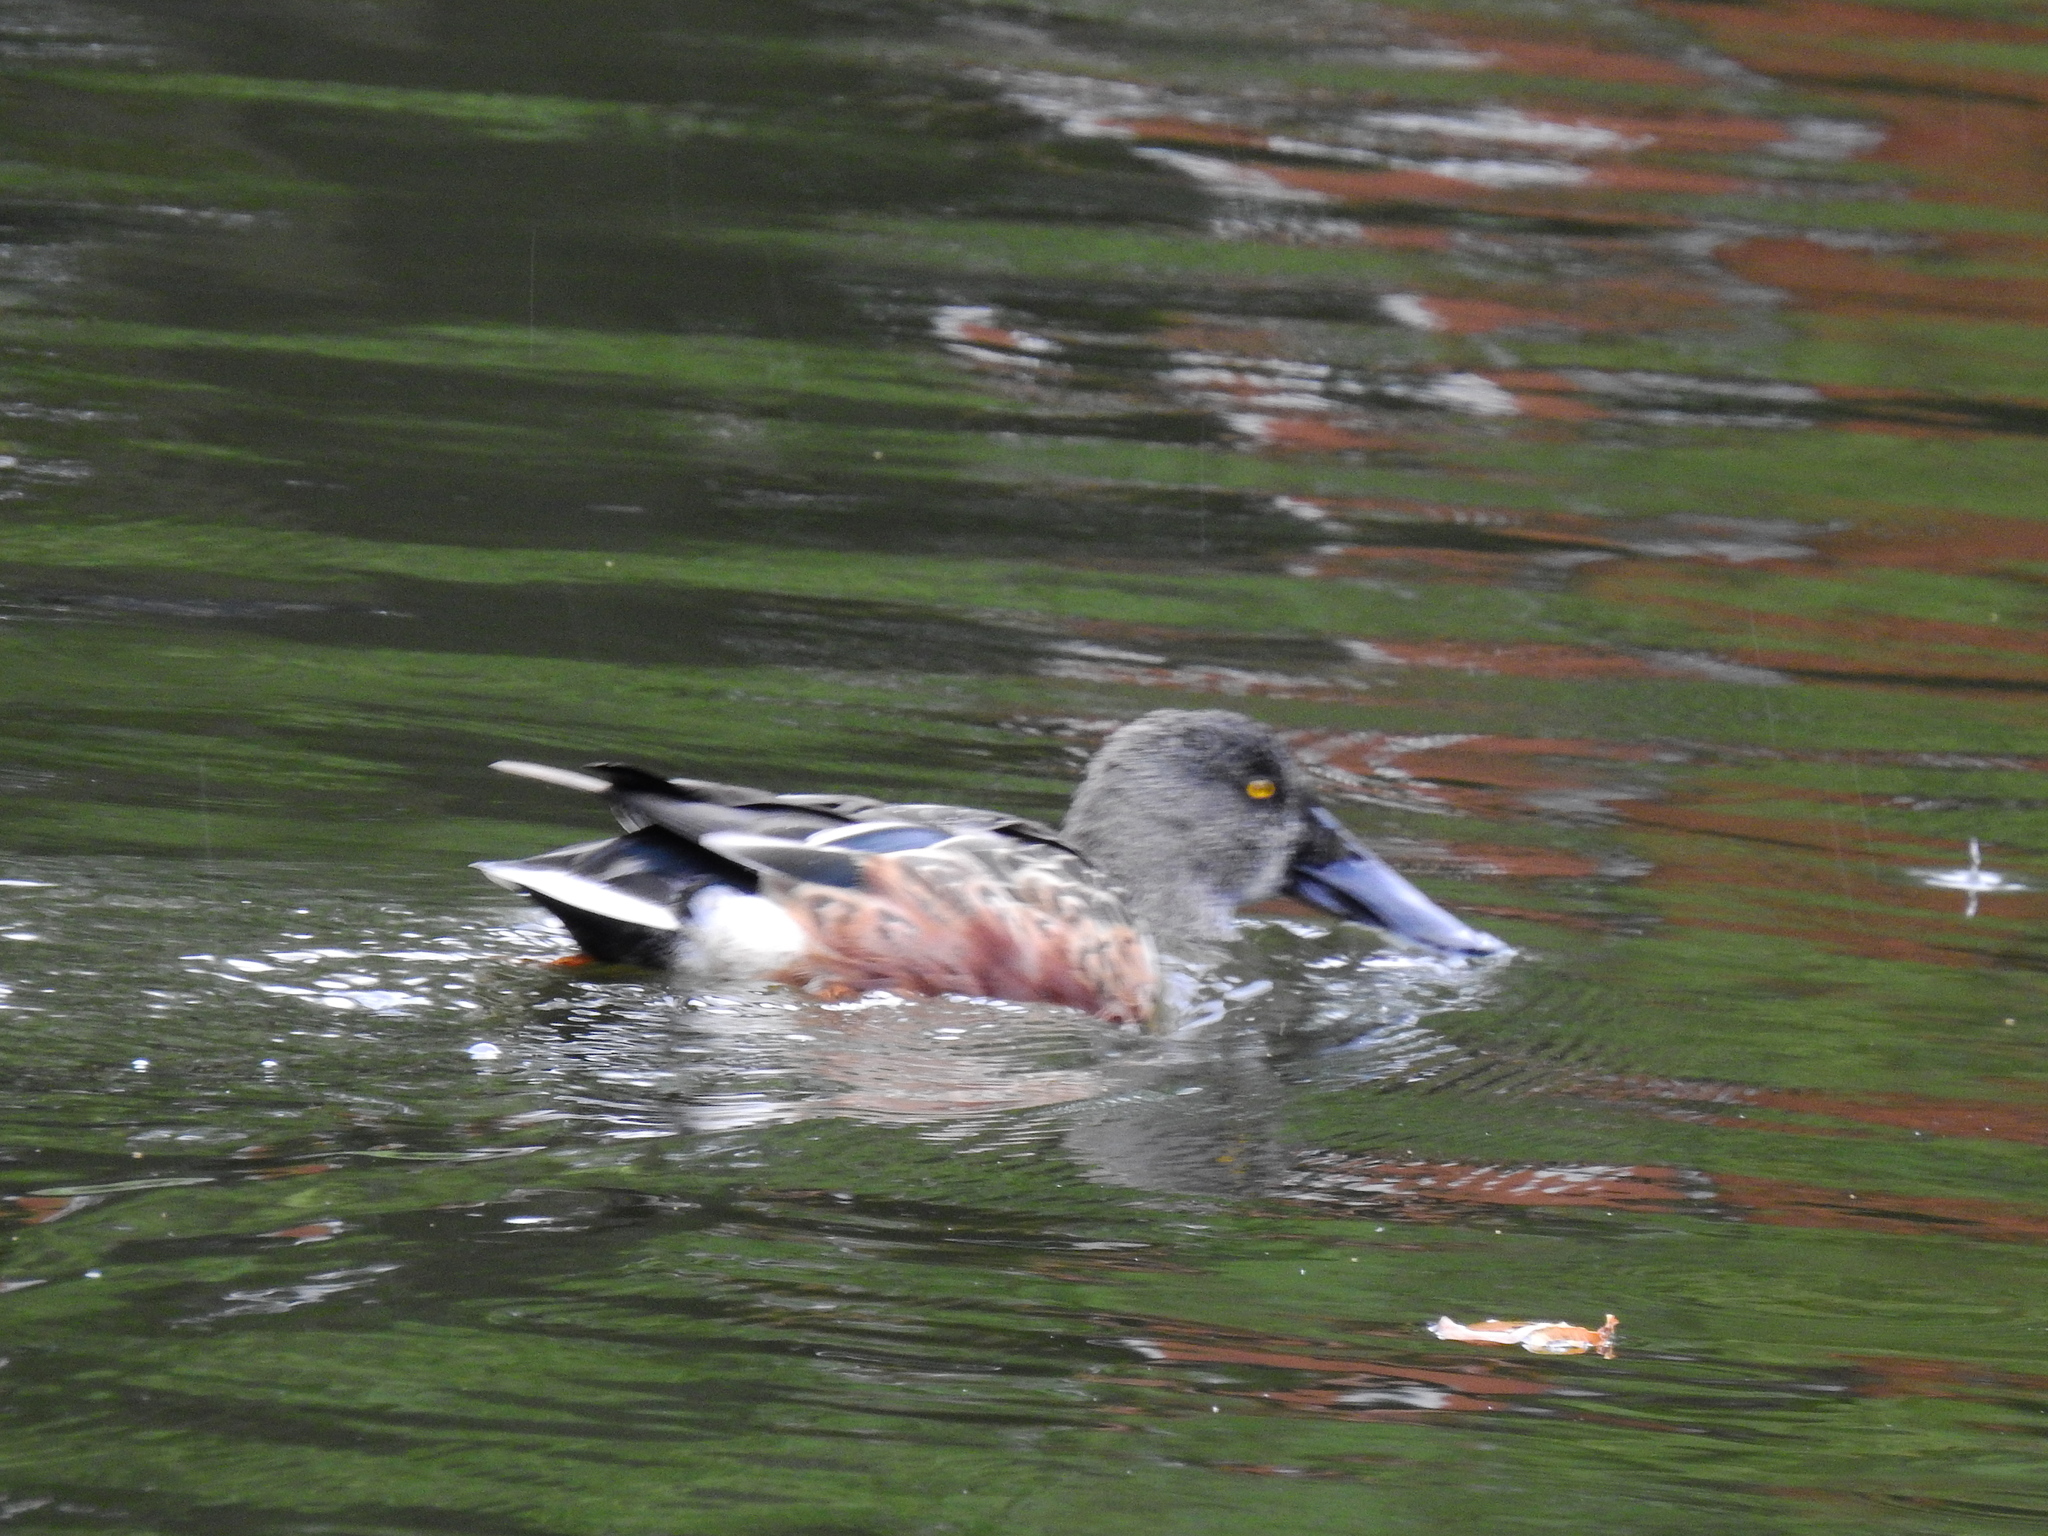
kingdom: Animalia
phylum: Chordata
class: Aves
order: Anseriformes
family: Anatidae
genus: Spatula
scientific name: Spatula clypeata
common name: Northern shoveler
